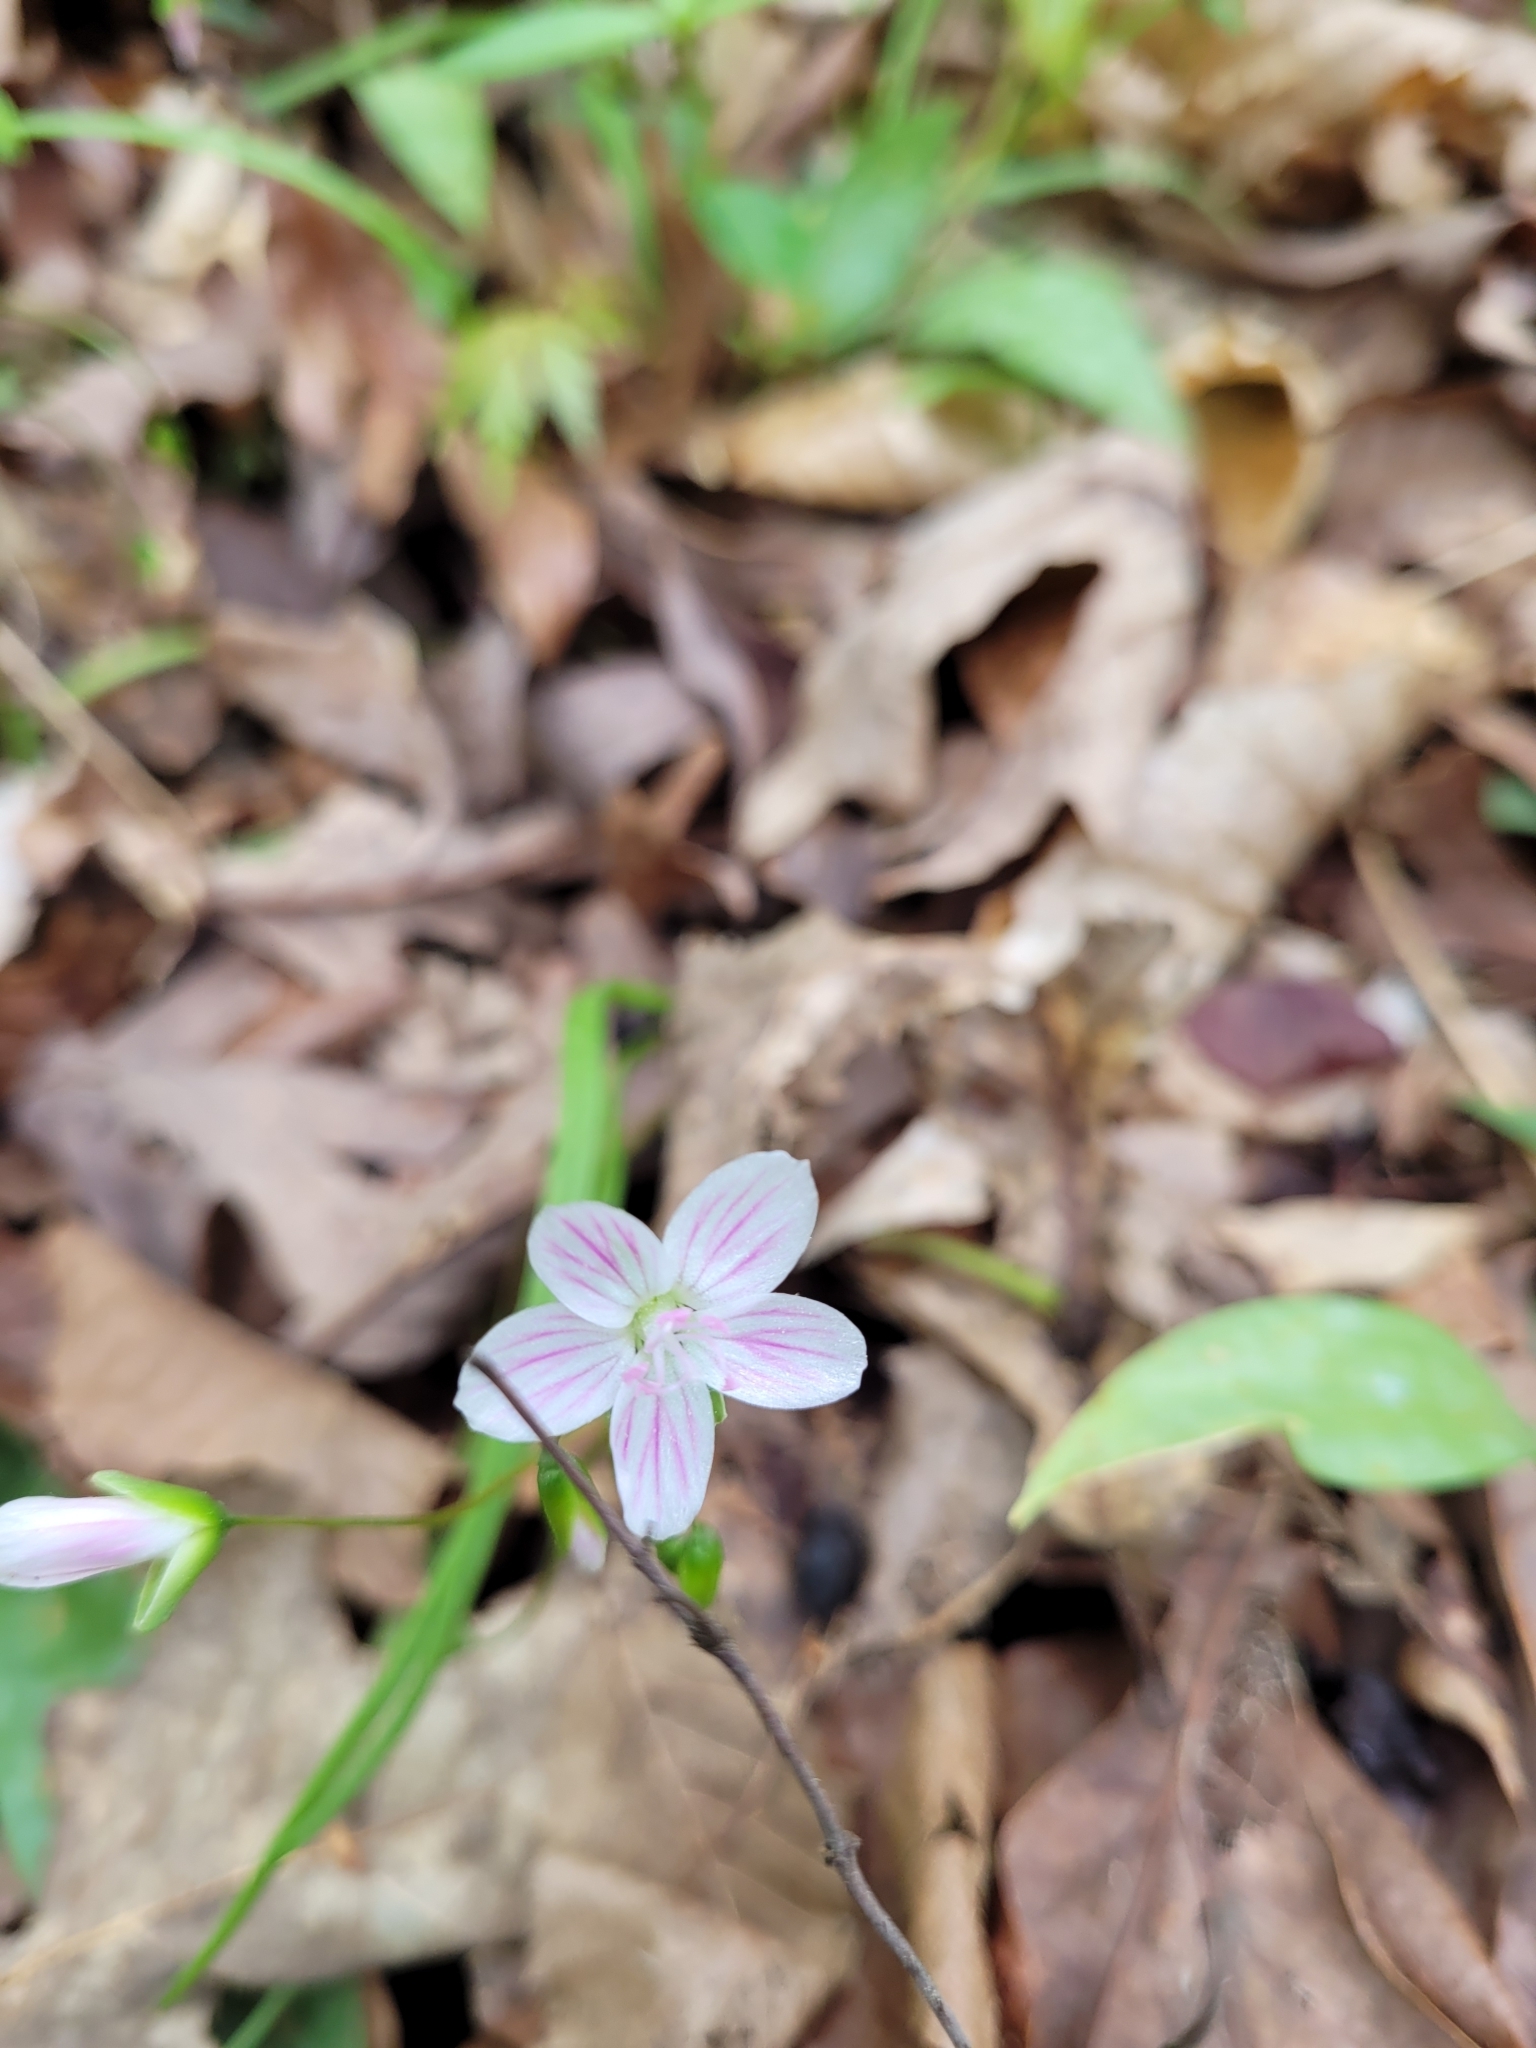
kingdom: Plantae
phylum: Tracheophyta
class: Magnoliopsida
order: Caryophyllales
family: Montiaceae
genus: Claytonia
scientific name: Claytonia virginica
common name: Virginia springbeauty
